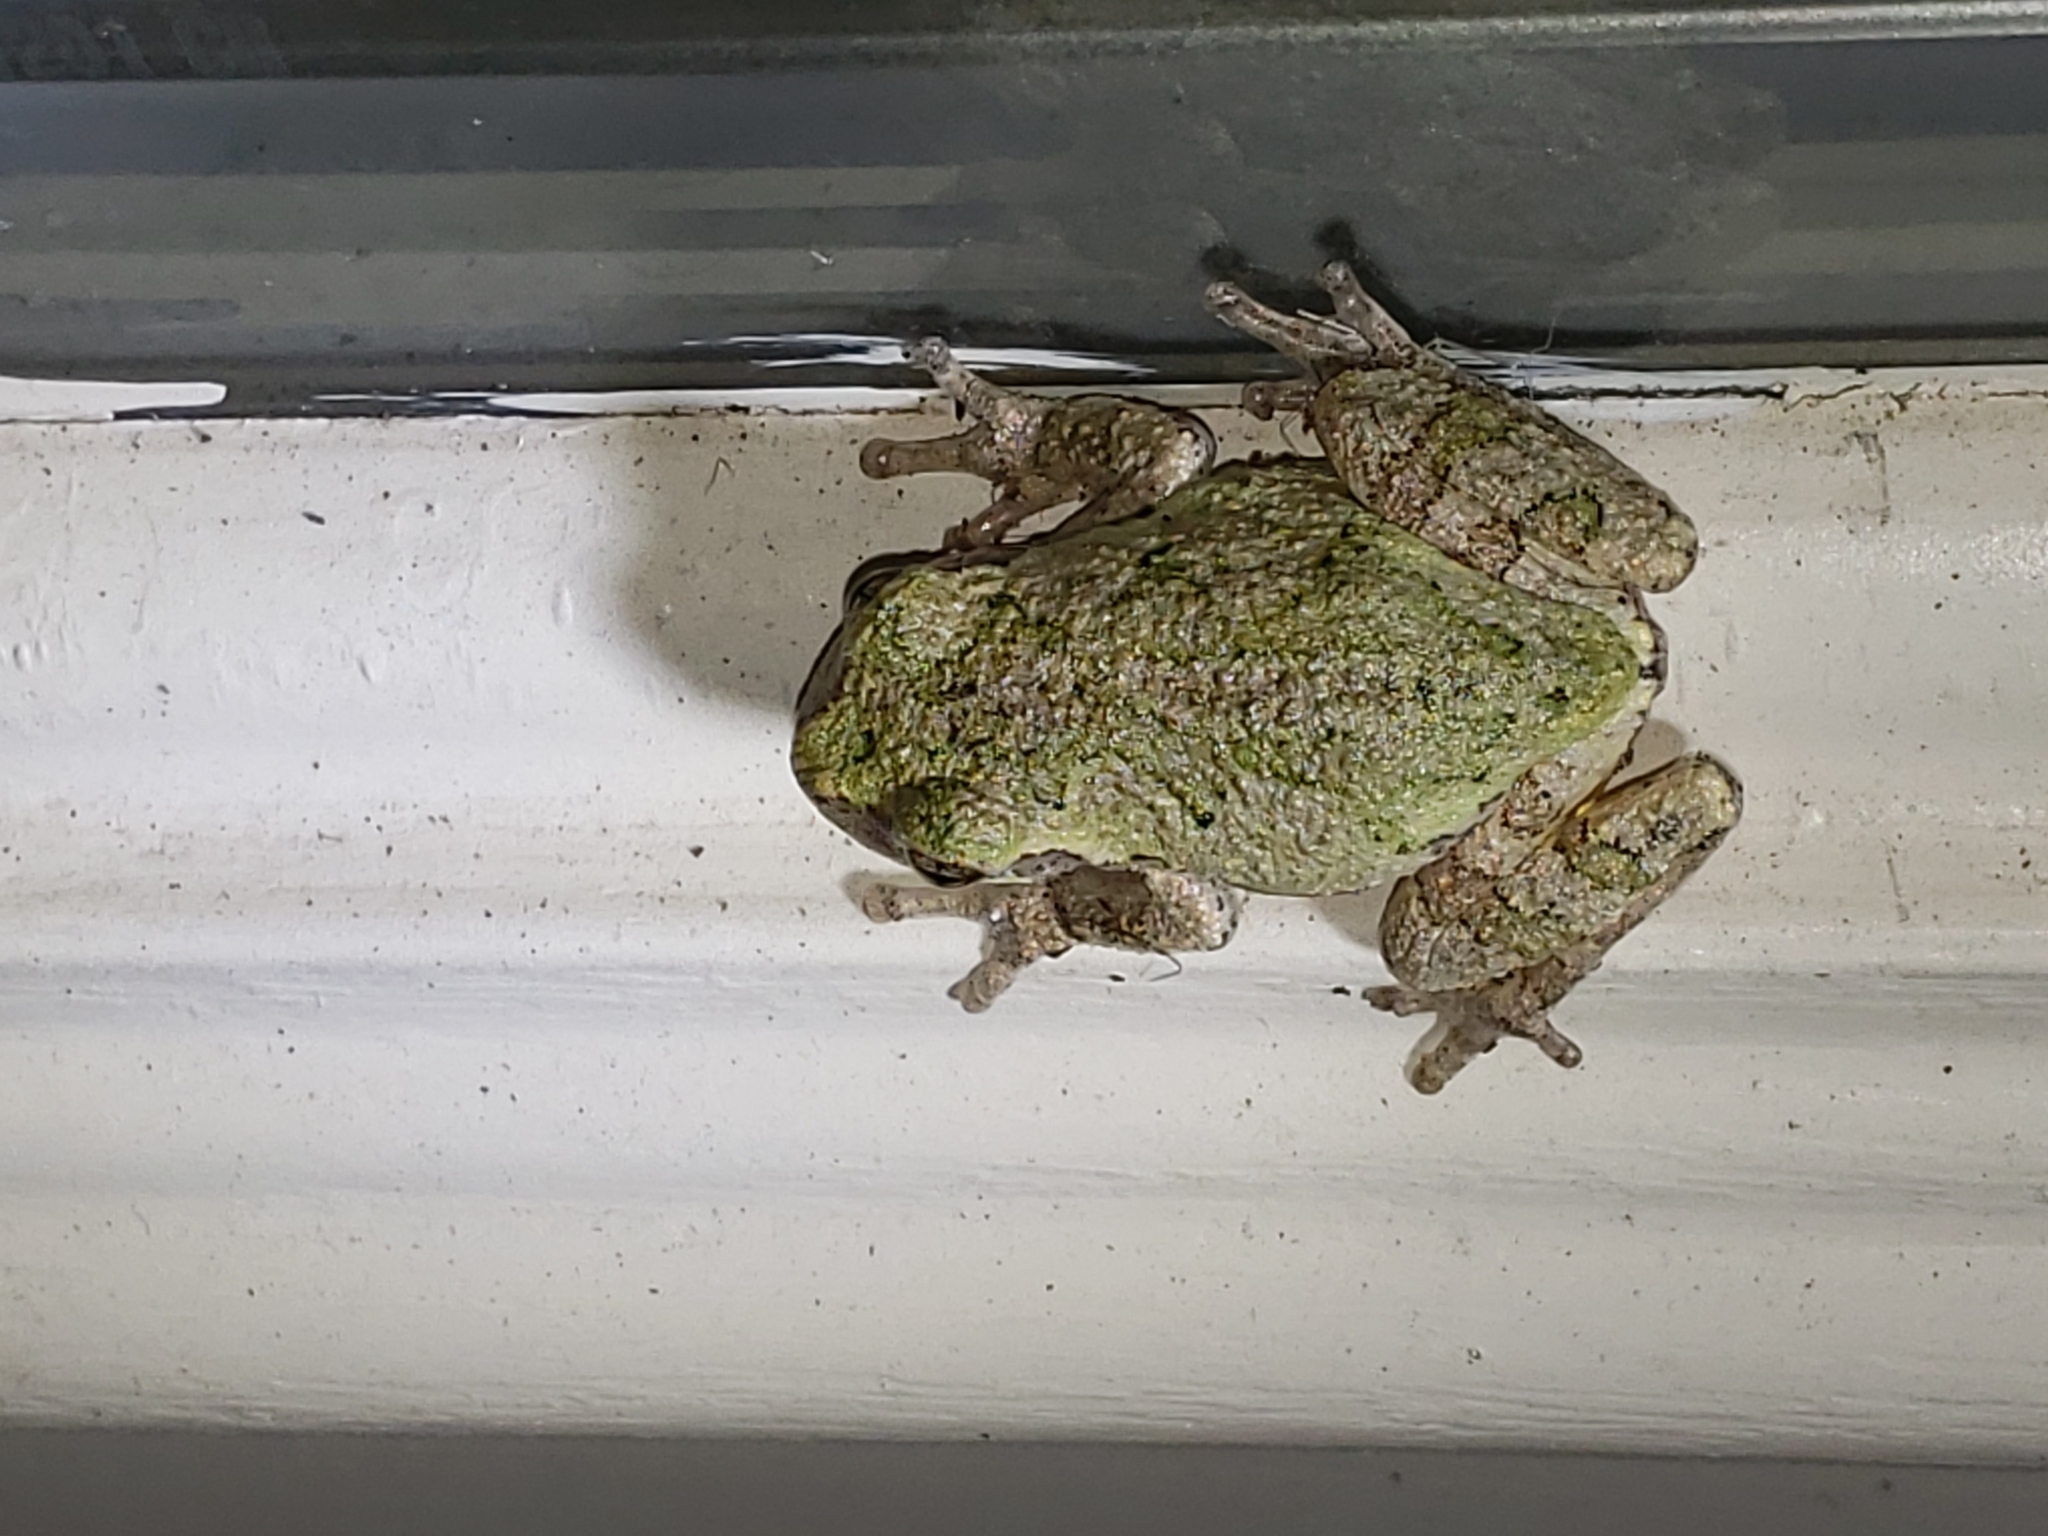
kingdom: Animalia
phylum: Chordata
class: Amphibia
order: Anura
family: Hylidae
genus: Hyla
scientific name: Hyla
